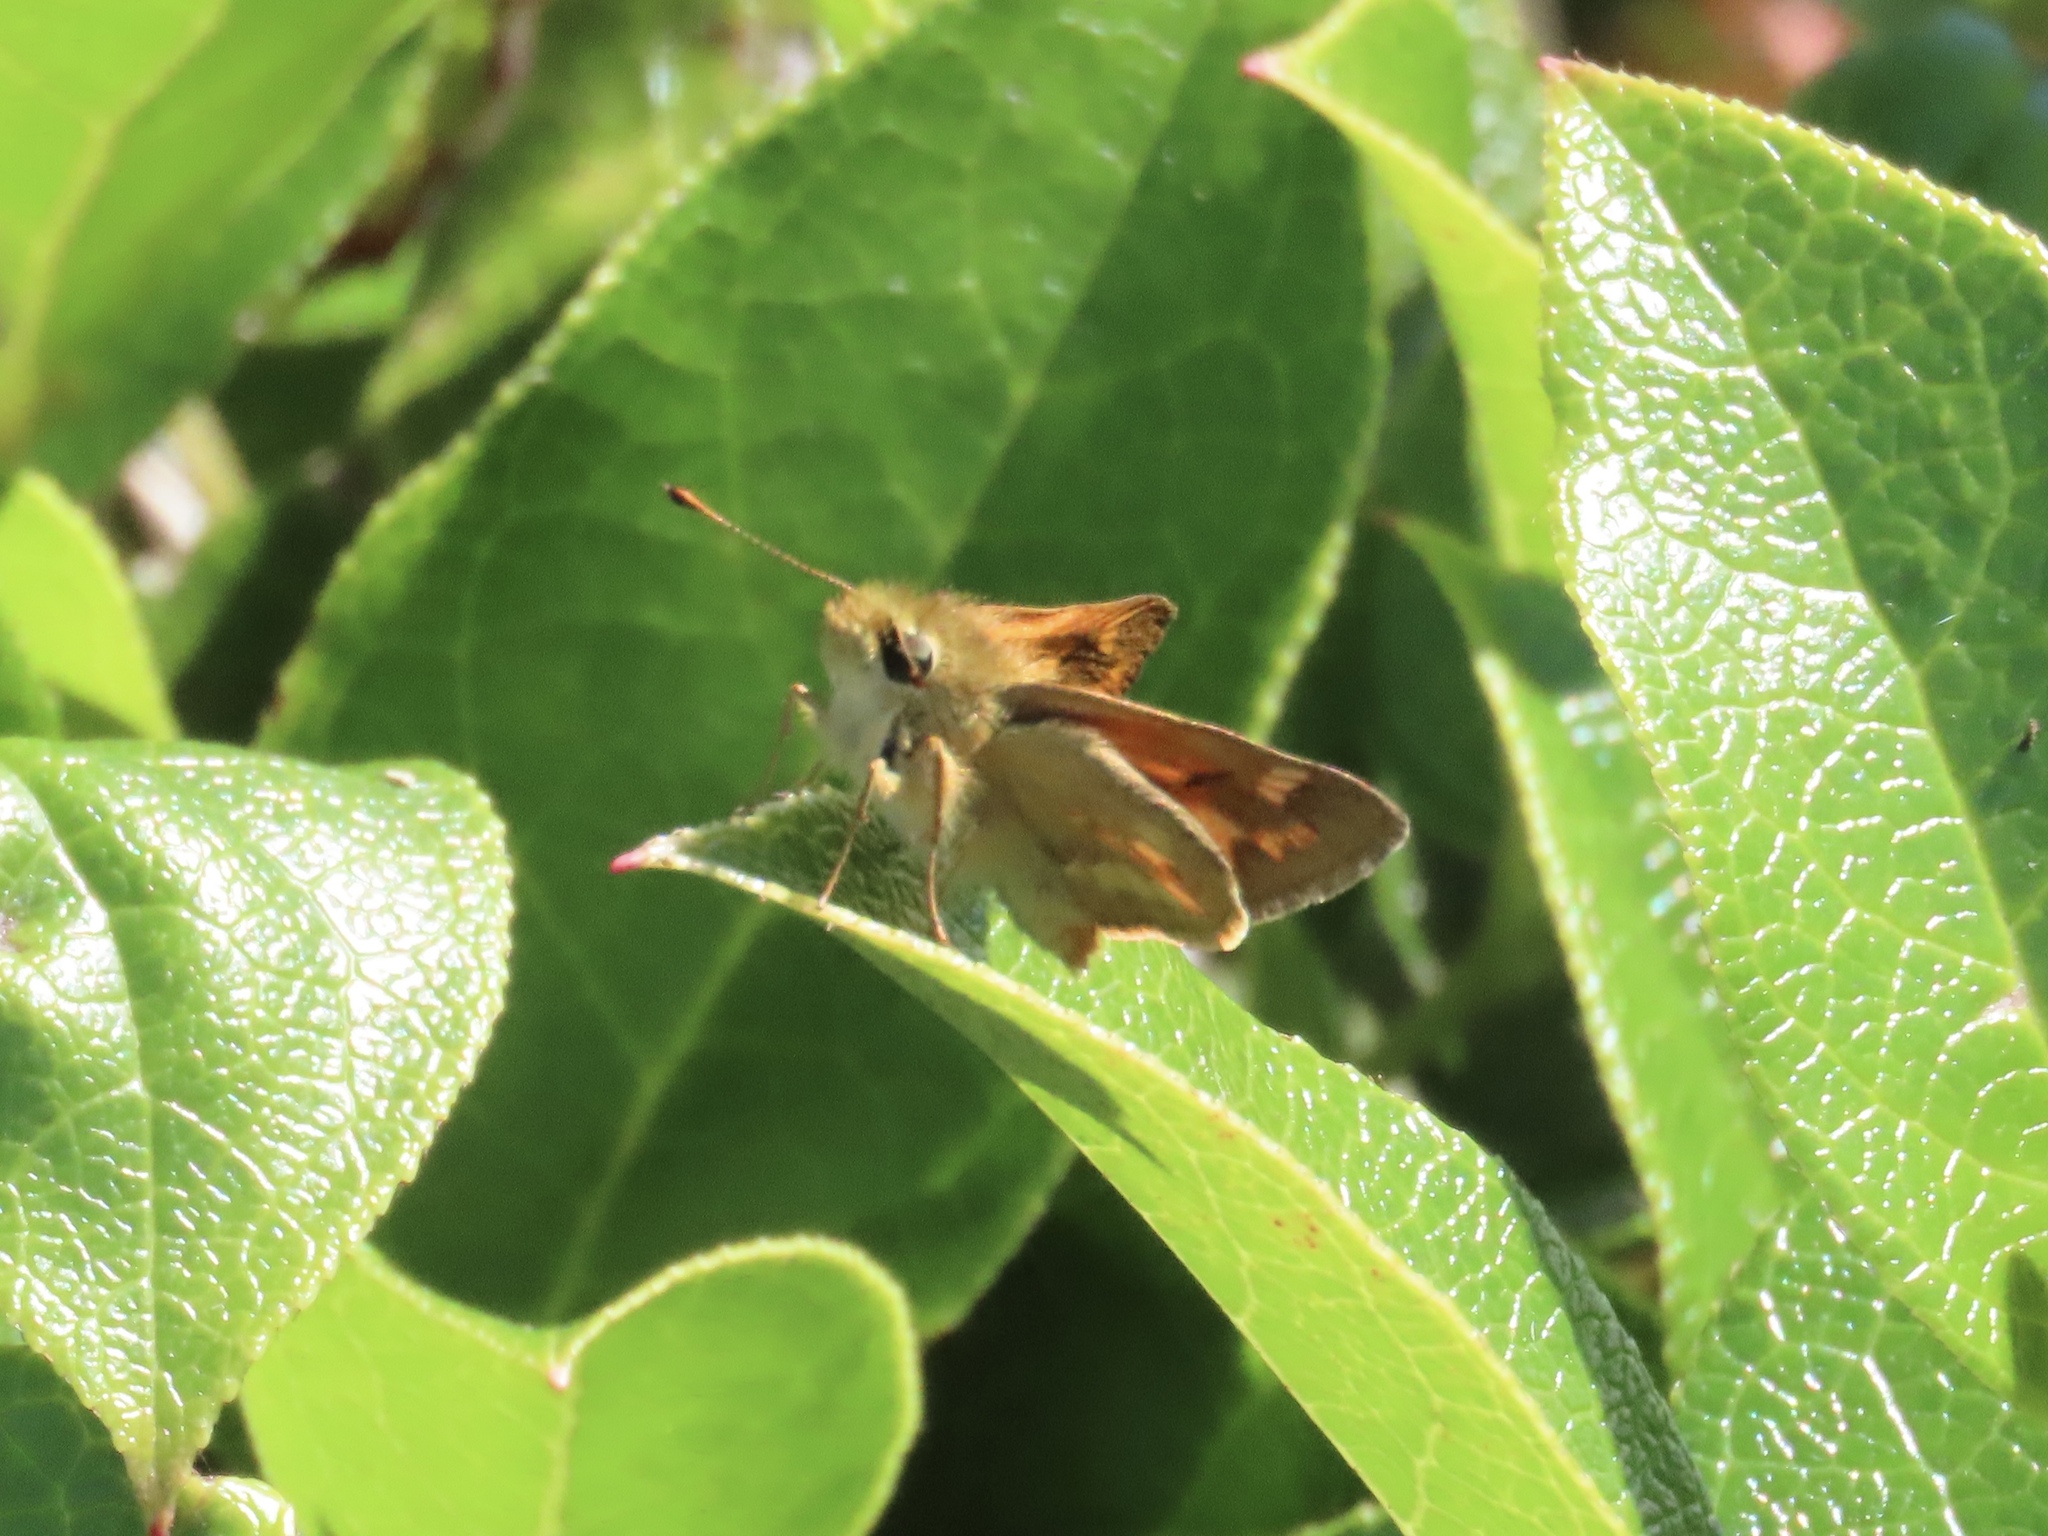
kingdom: Animalia
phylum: Arthropoda
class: Insecta
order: Lepidoptera
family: Hesperiidae
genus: Ochlodes
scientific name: Ochlodes sylvanoides
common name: Woodland skipper
